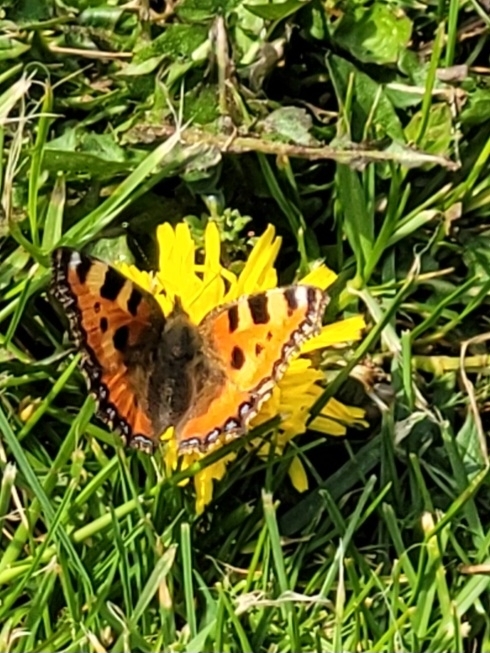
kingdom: Animalia
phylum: Arthropoda
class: Insecta
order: Lepidoptera
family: Nymphalidae
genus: Aglais
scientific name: Aglais urticae
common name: Small tortoiseshell
